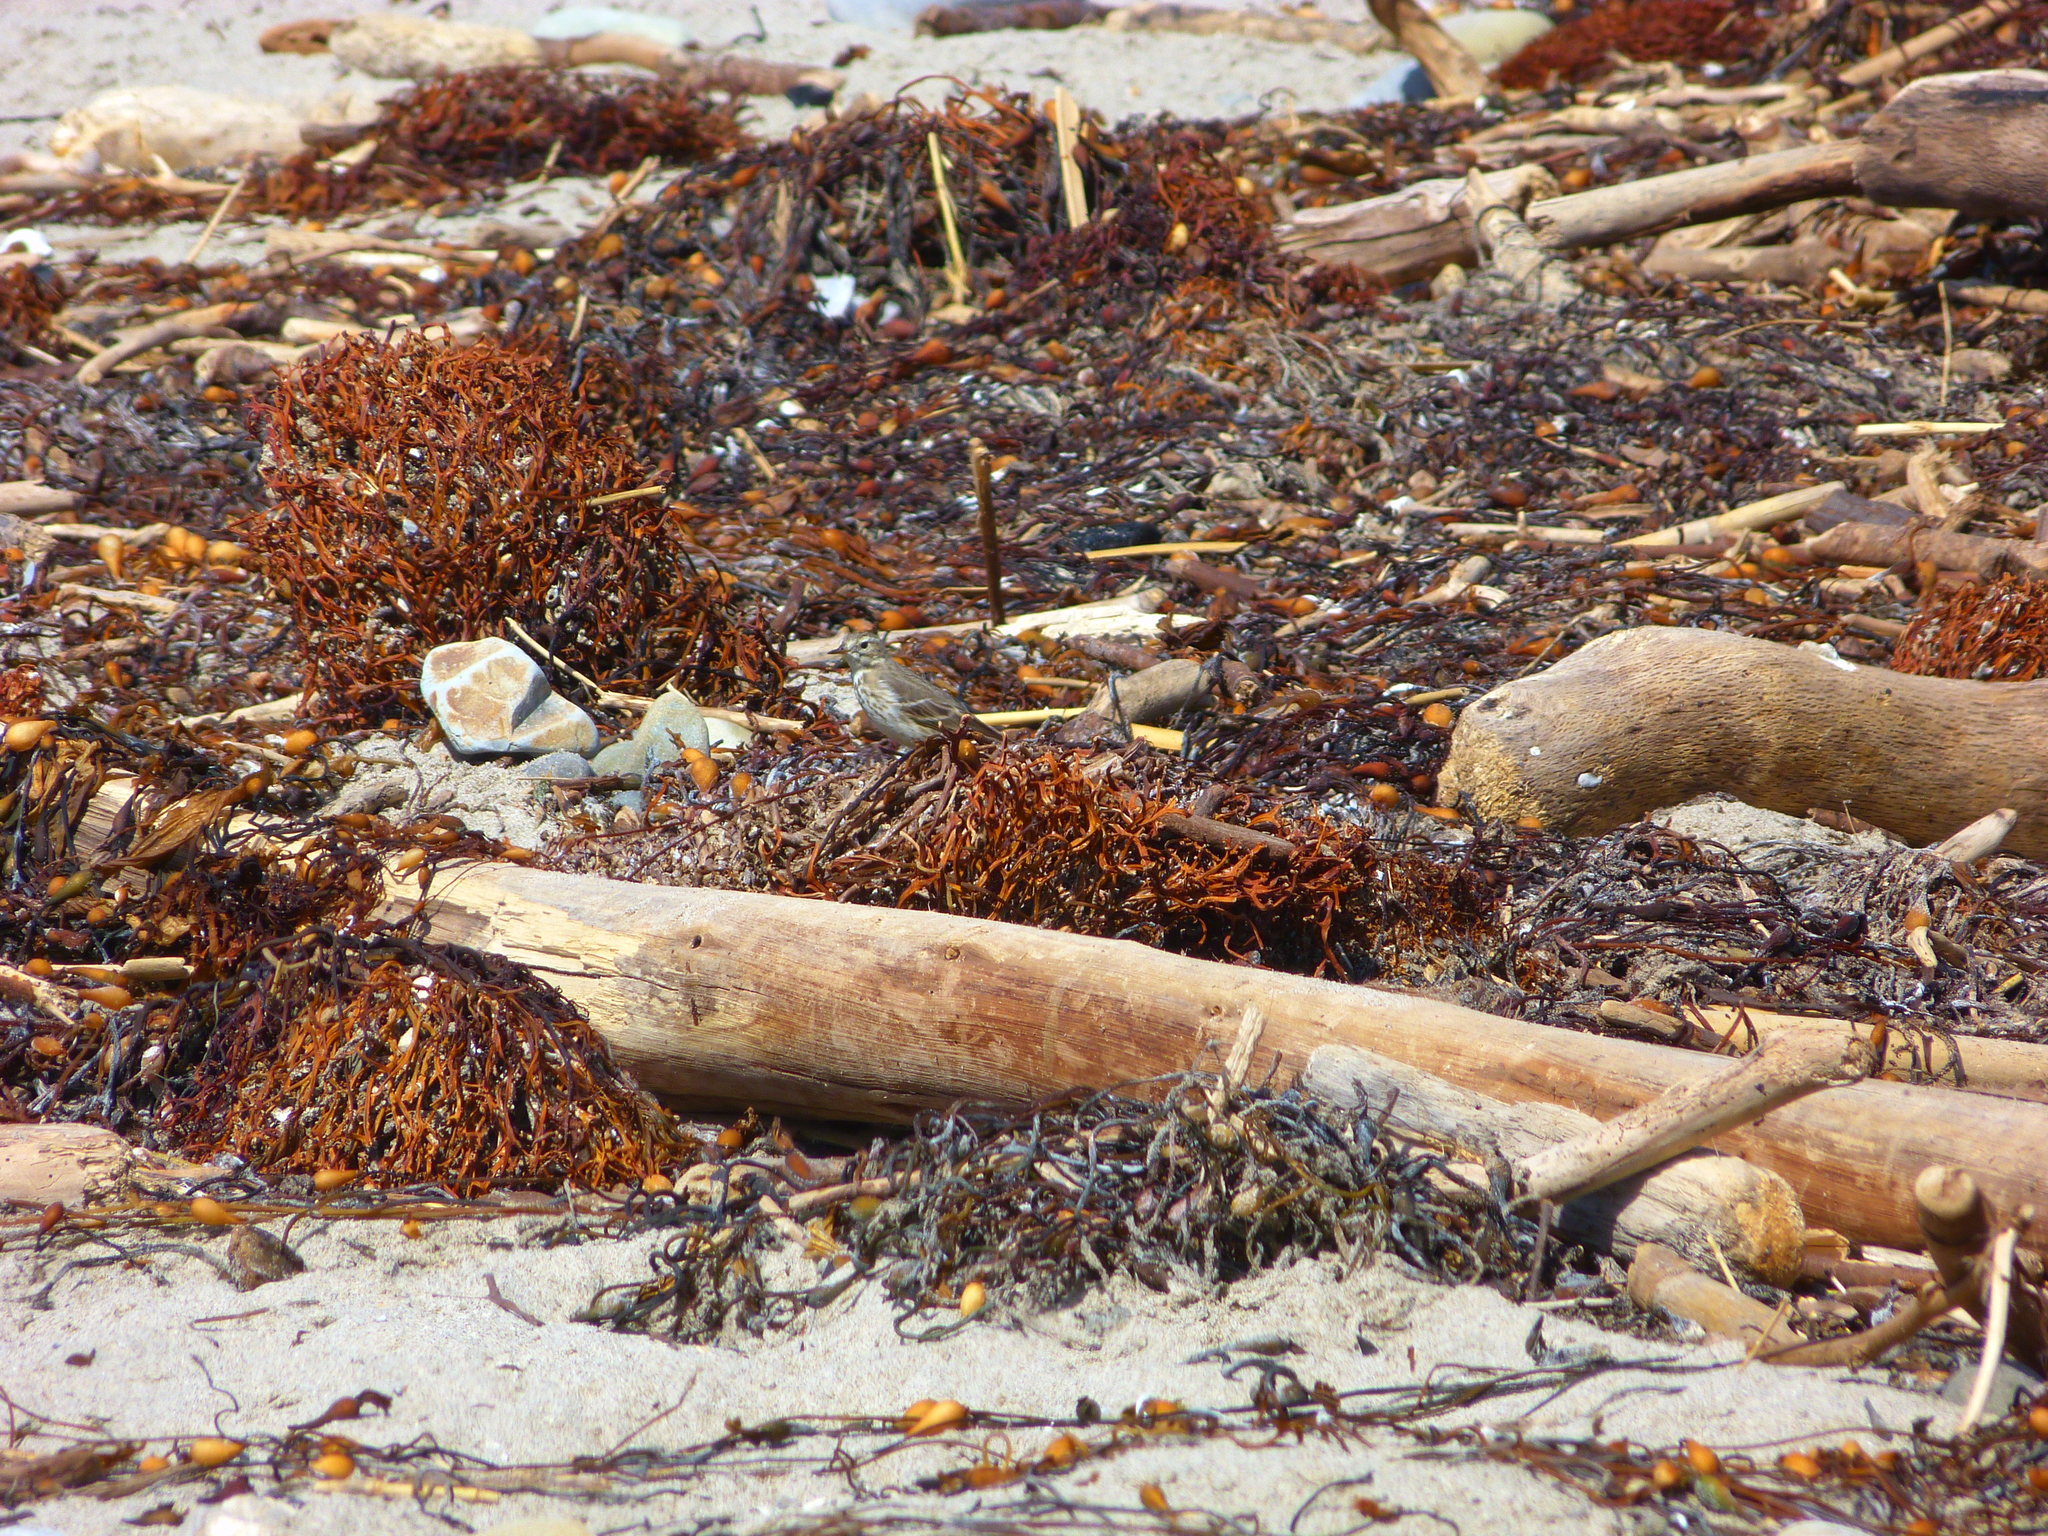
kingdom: Animalia
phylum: Chordata
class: Aves
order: Passeriformes
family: Motacillidae
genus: Anthus
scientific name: Anthus rubescens
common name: Buff-bellied pipit
